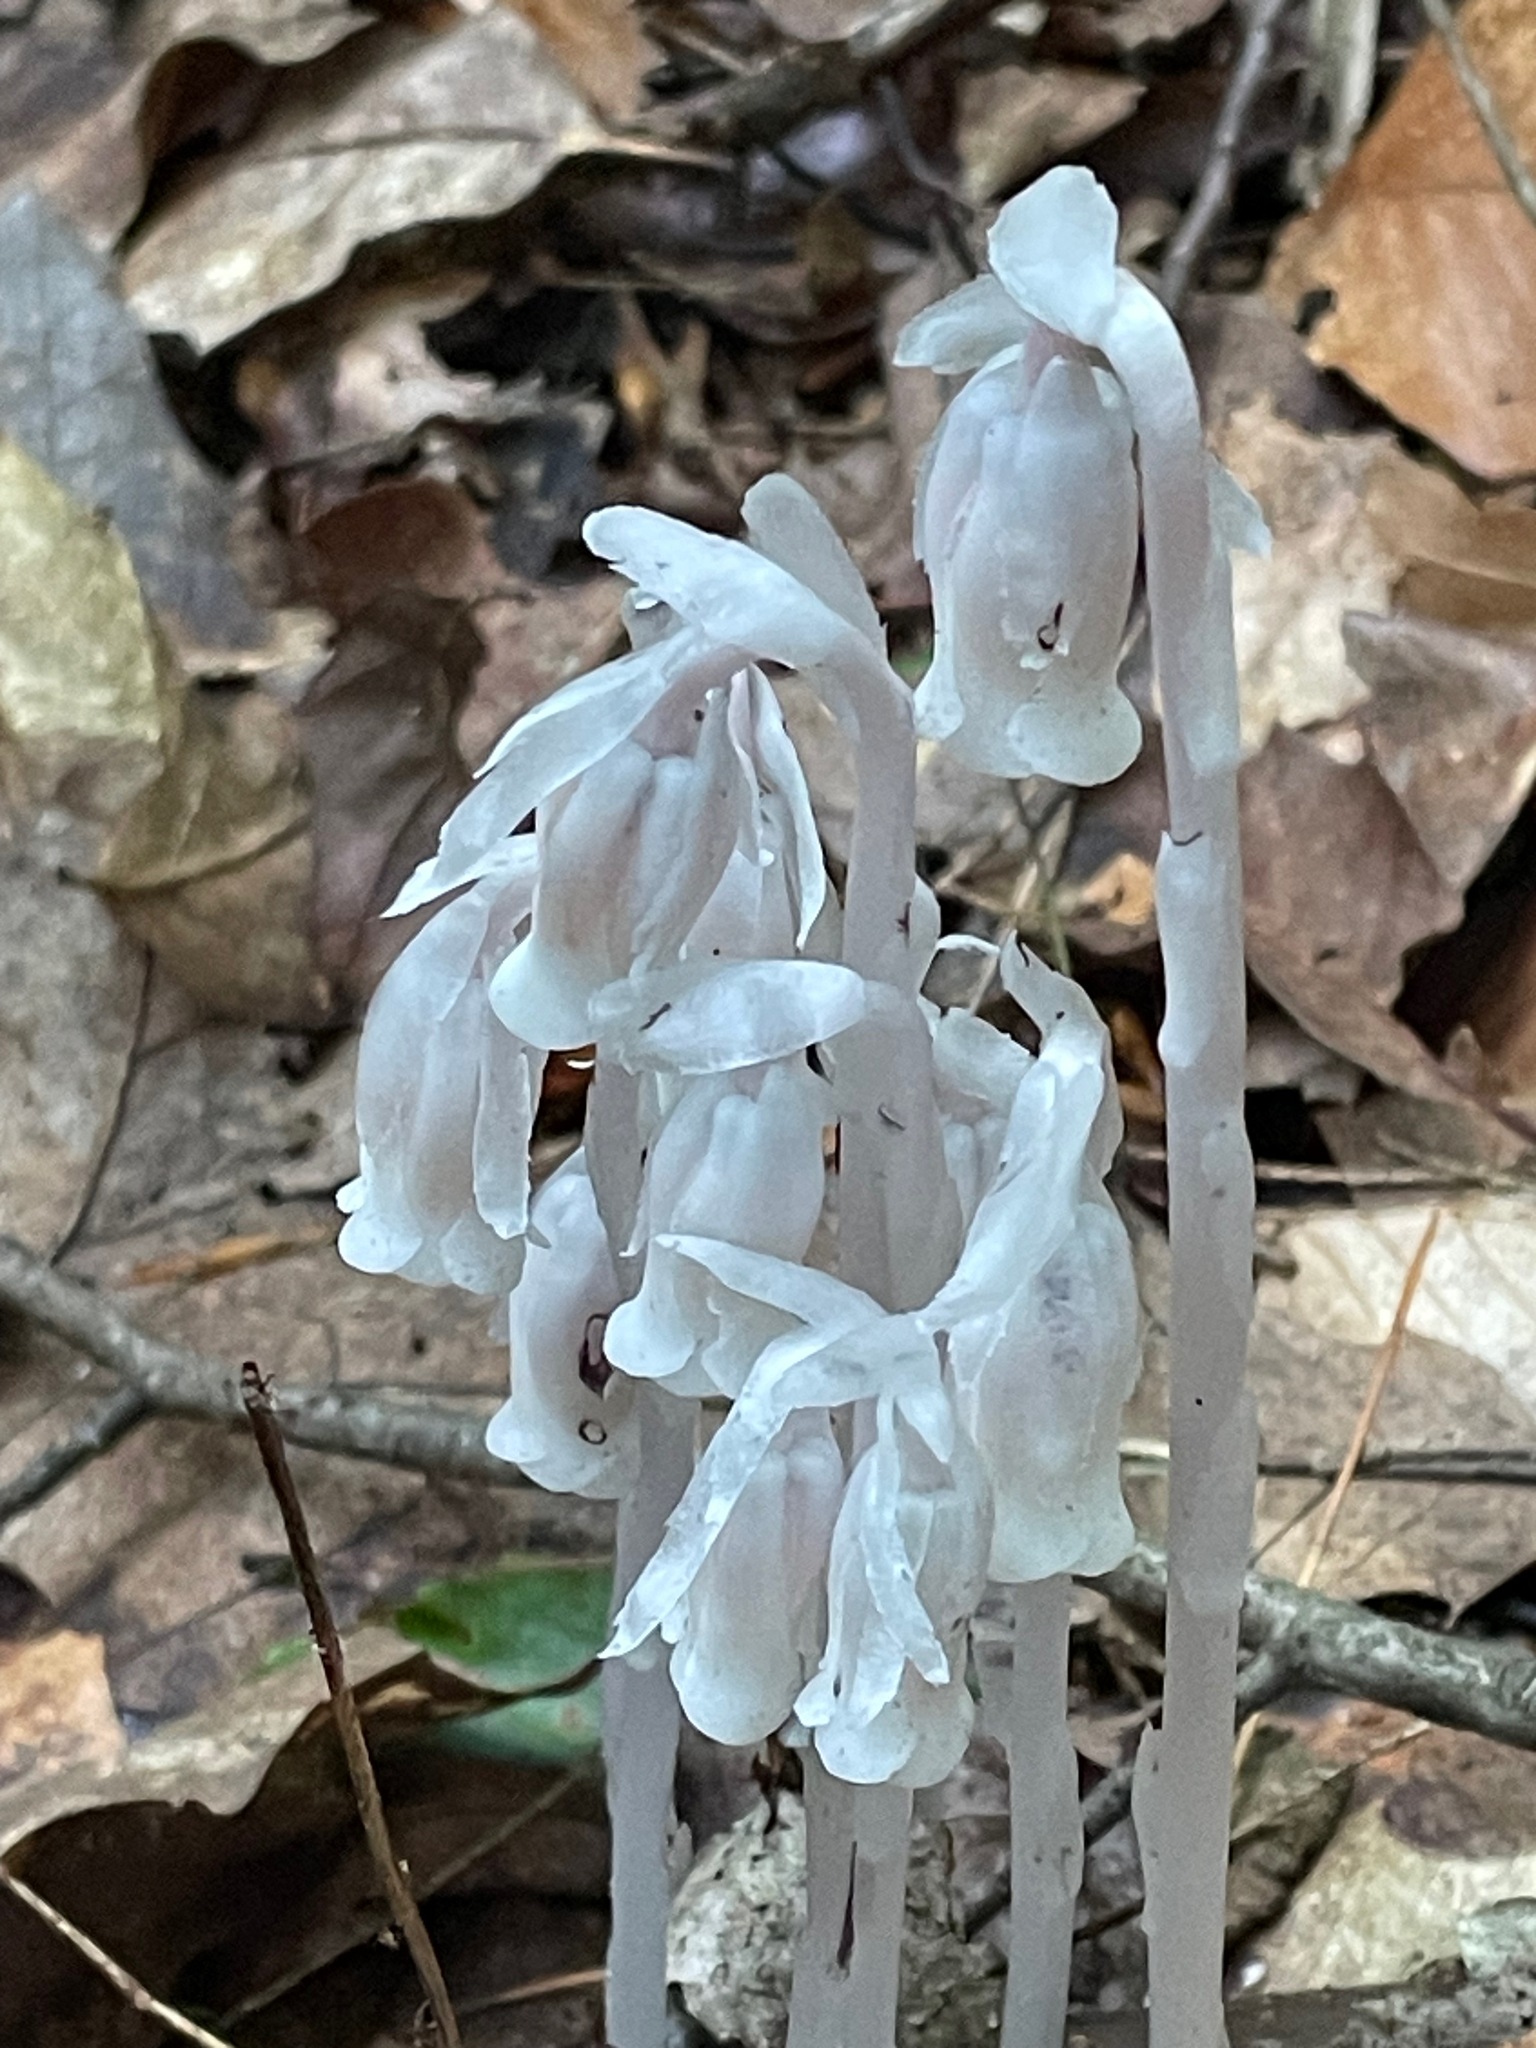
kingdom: Plantae
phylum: Tracheophyta
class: Magnoliopsida
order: Ericales
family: Ericaceae
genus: Monotropa
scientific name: Monotropa uniflora
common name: Convulsion root
